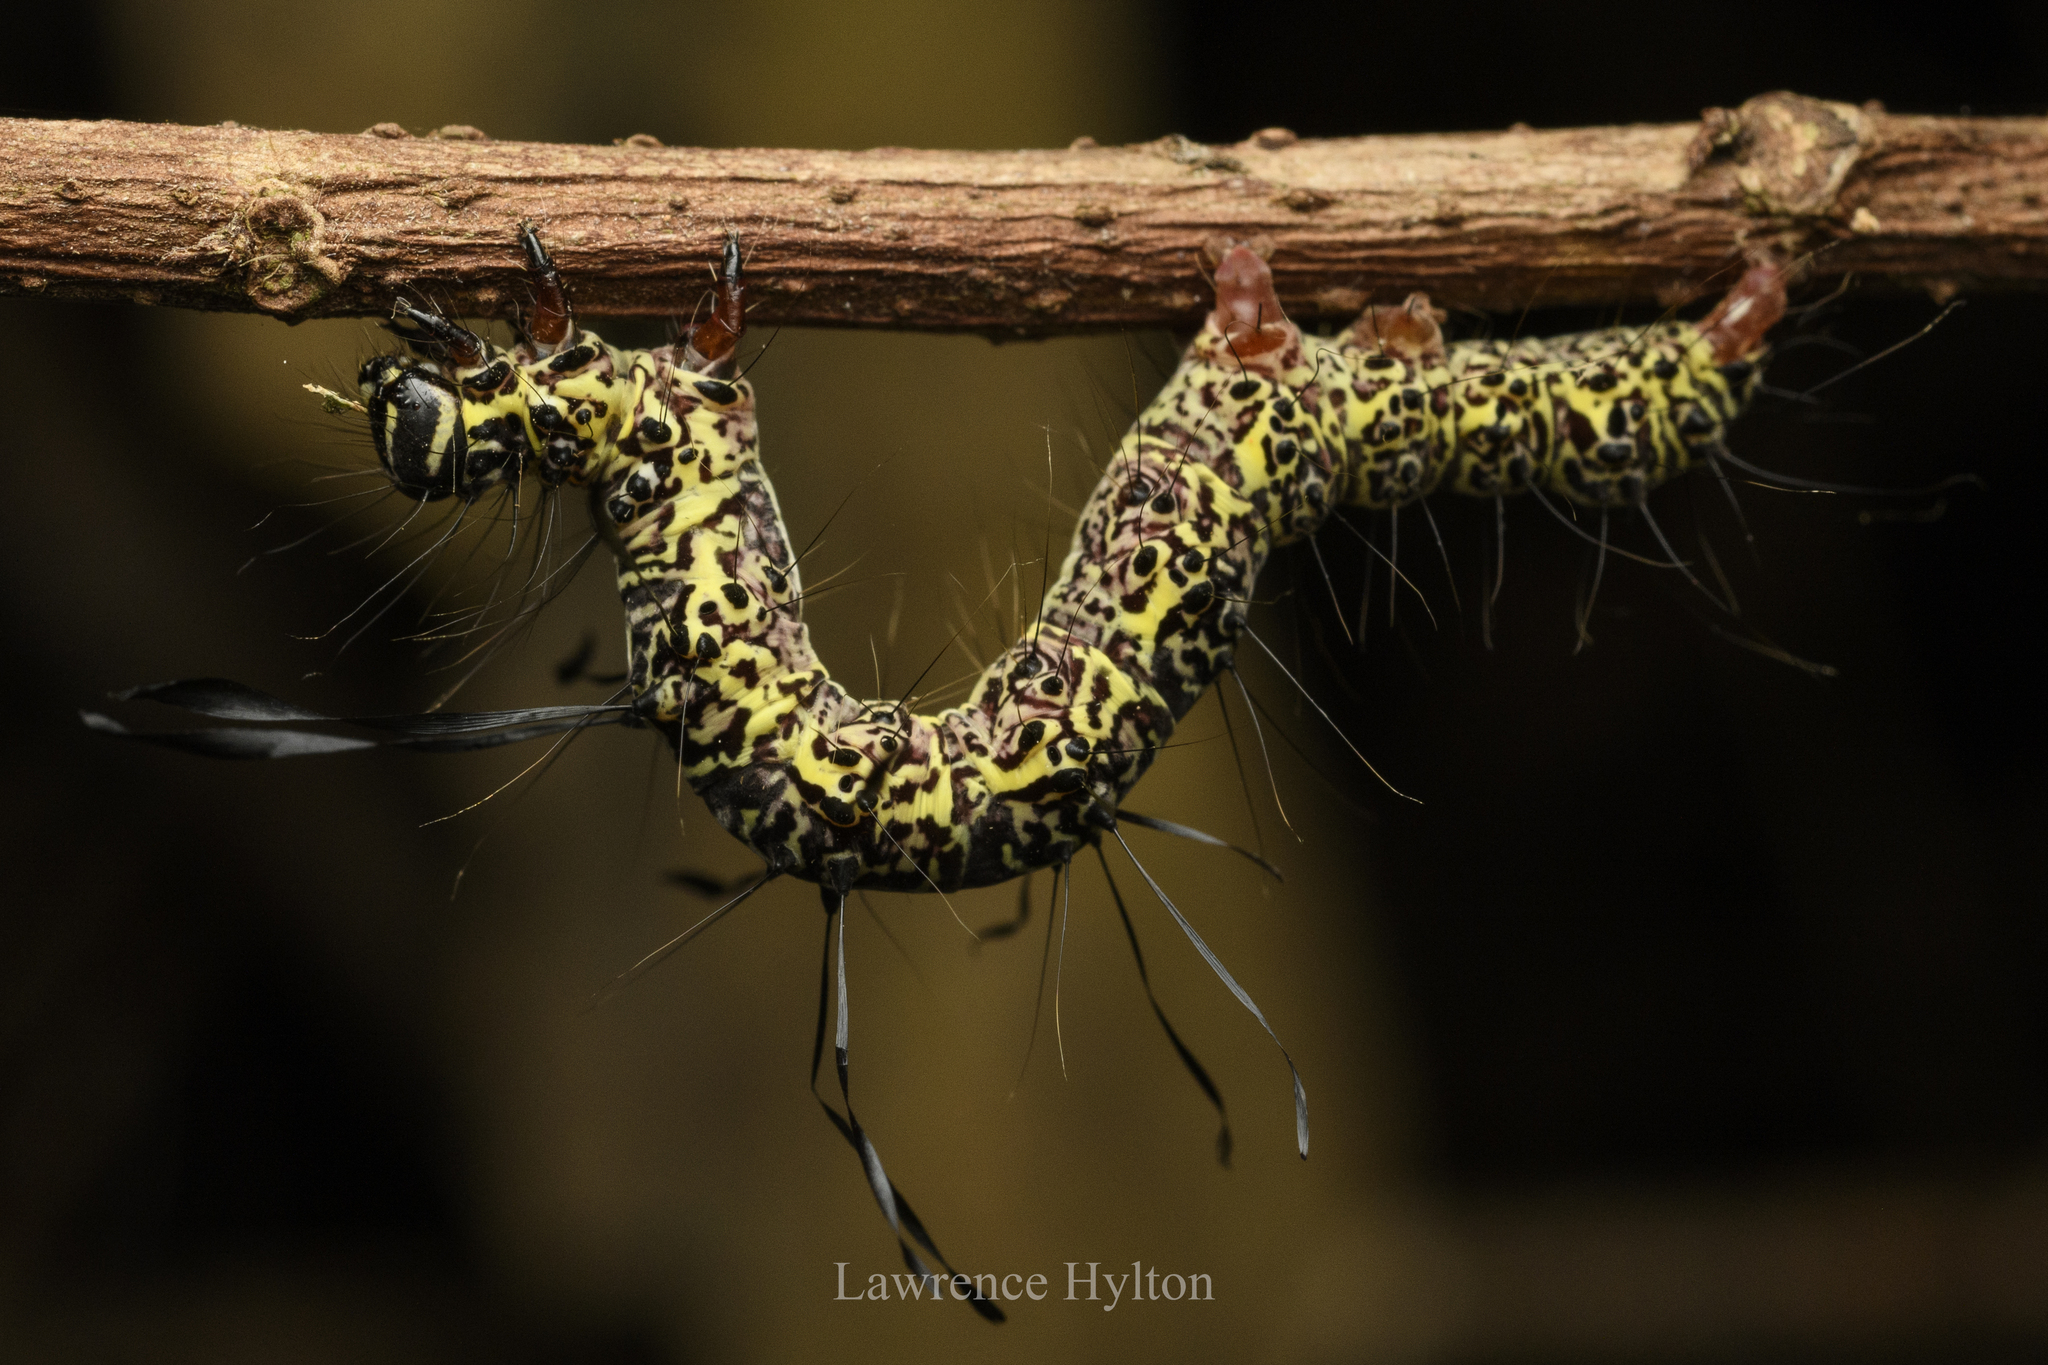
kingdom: Animalia
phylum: Arthropoda
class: Insecta
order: Lepidoptera
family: Erebidae
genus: Tinolius
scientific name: Tinolius hypsana
